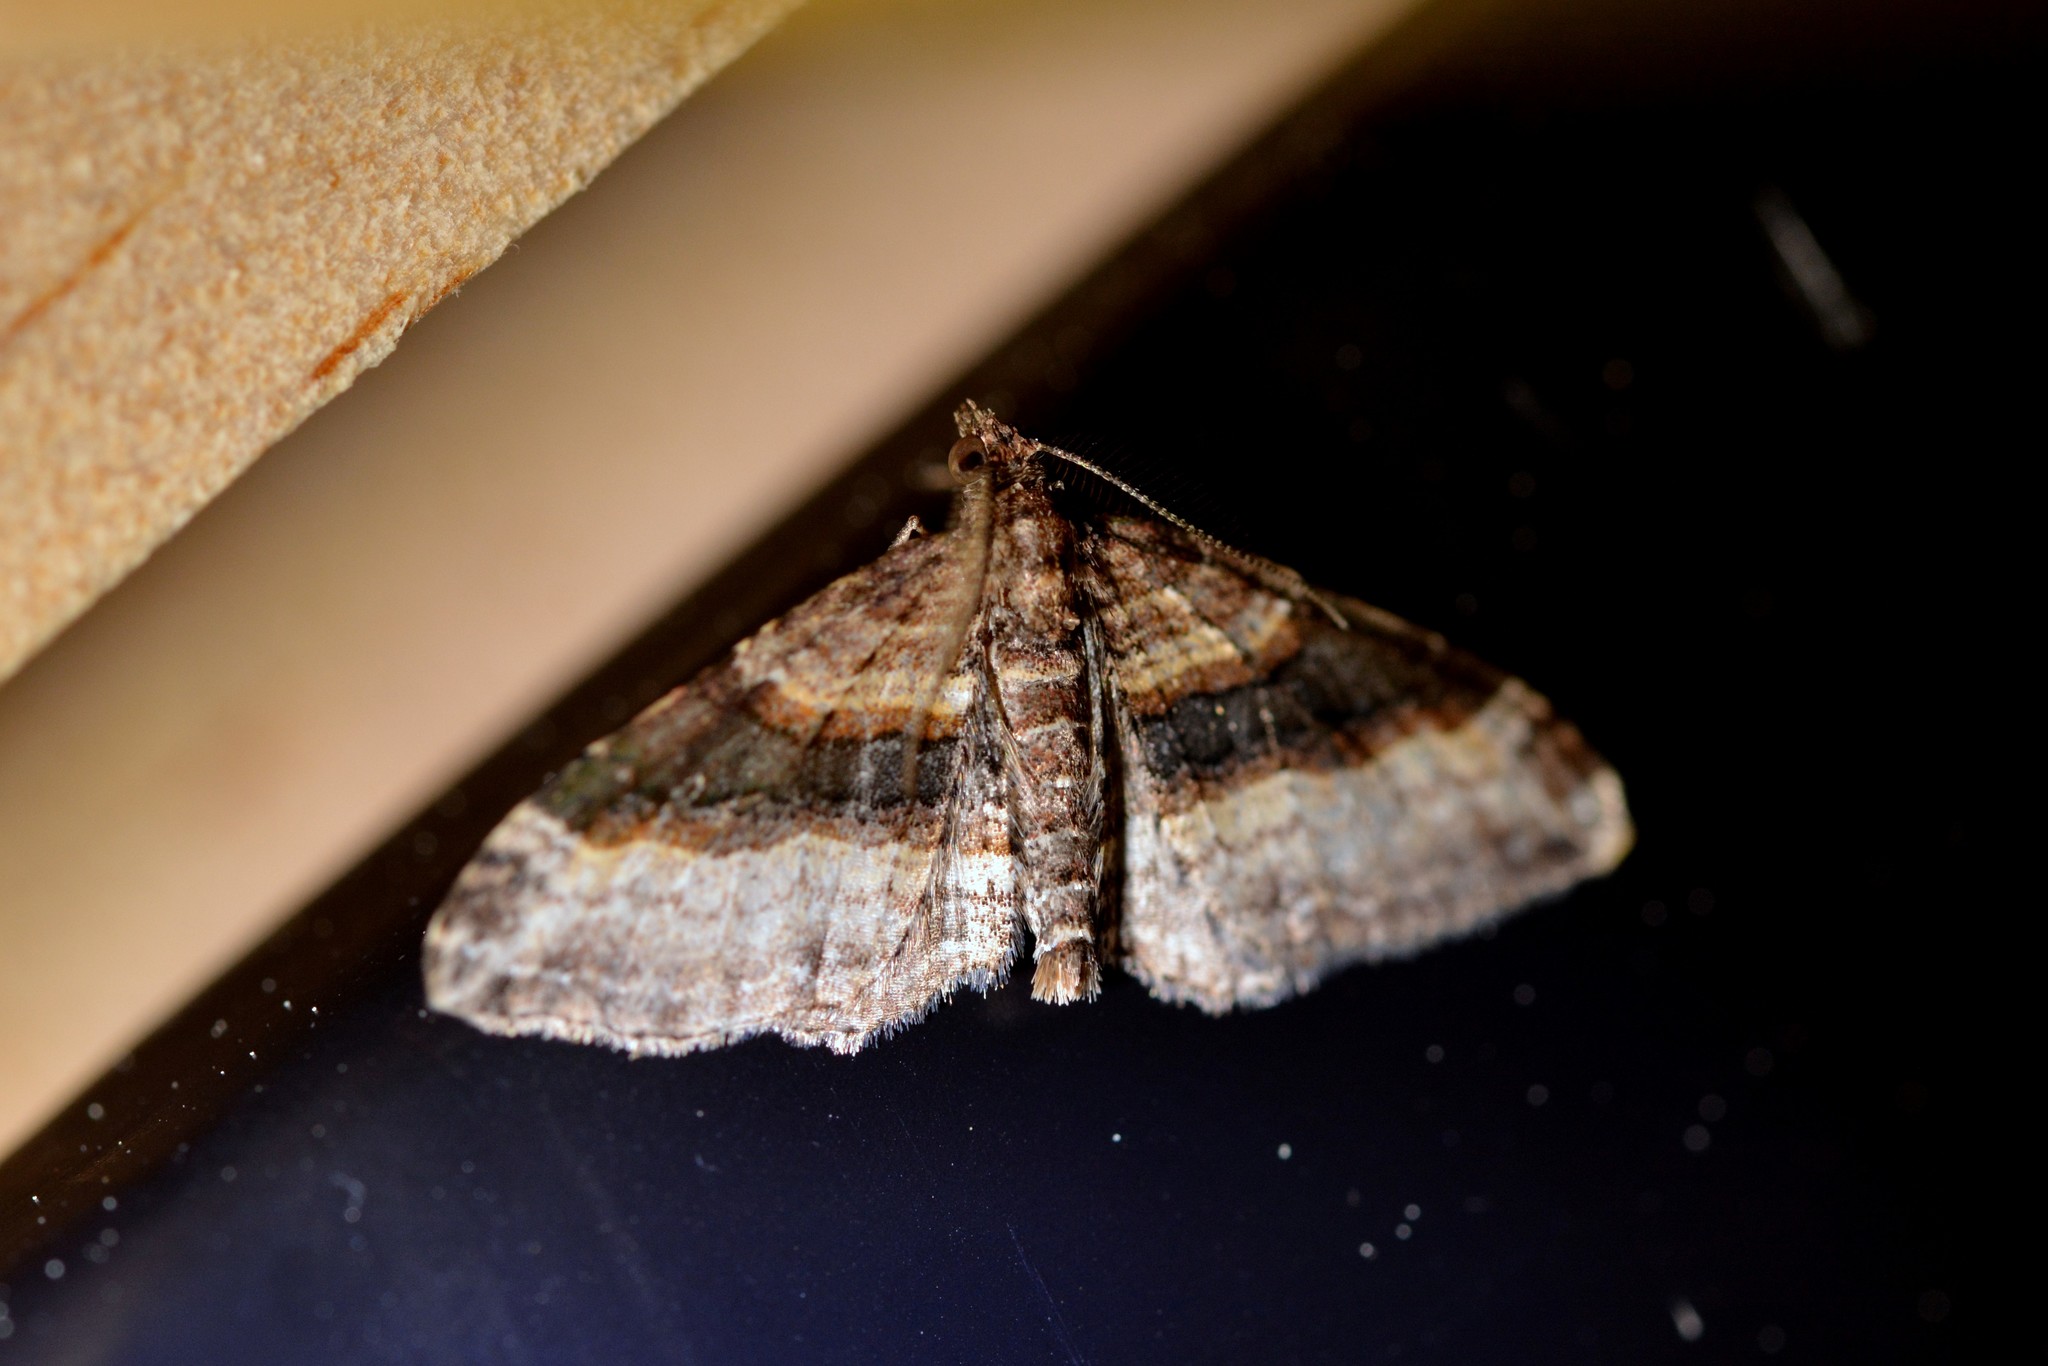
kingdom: Animalia
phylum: Arthropoda
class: Insecta
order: Lepidoptera
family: Geometridae
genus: Epyaxa
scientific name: Epyaxa lucidata
